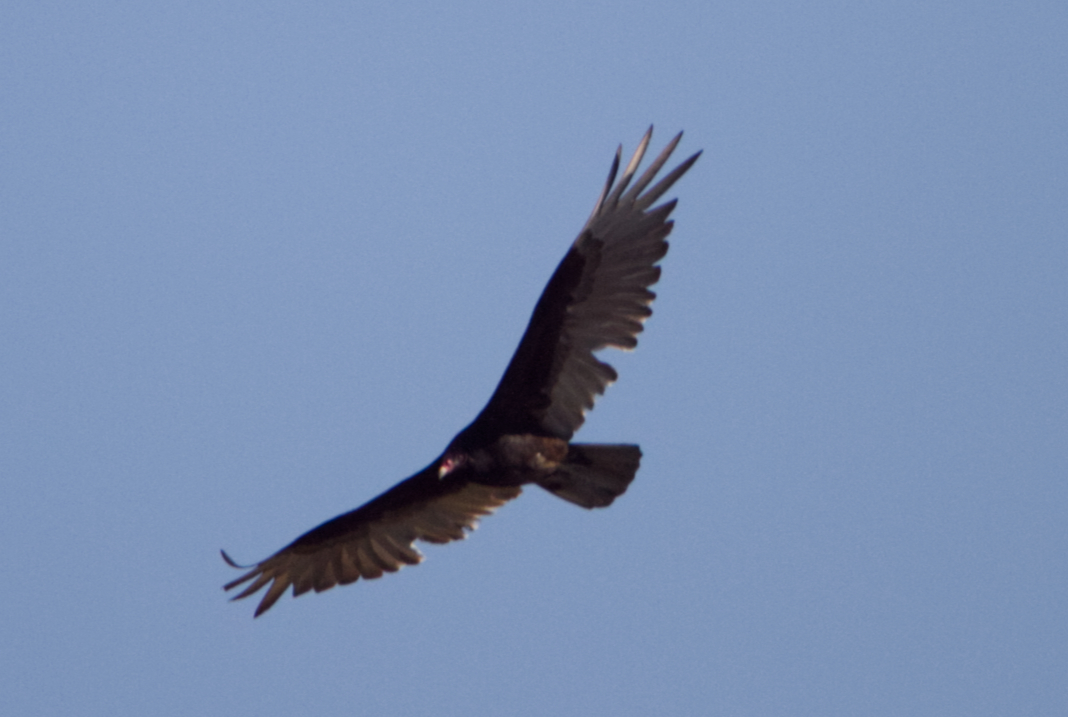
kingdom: Animalia
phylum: Chordata
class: Aves
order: Accipitriformes
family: Cathartidae
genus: Cathartes
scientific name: Cathartes aura
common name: Turkey vulture
